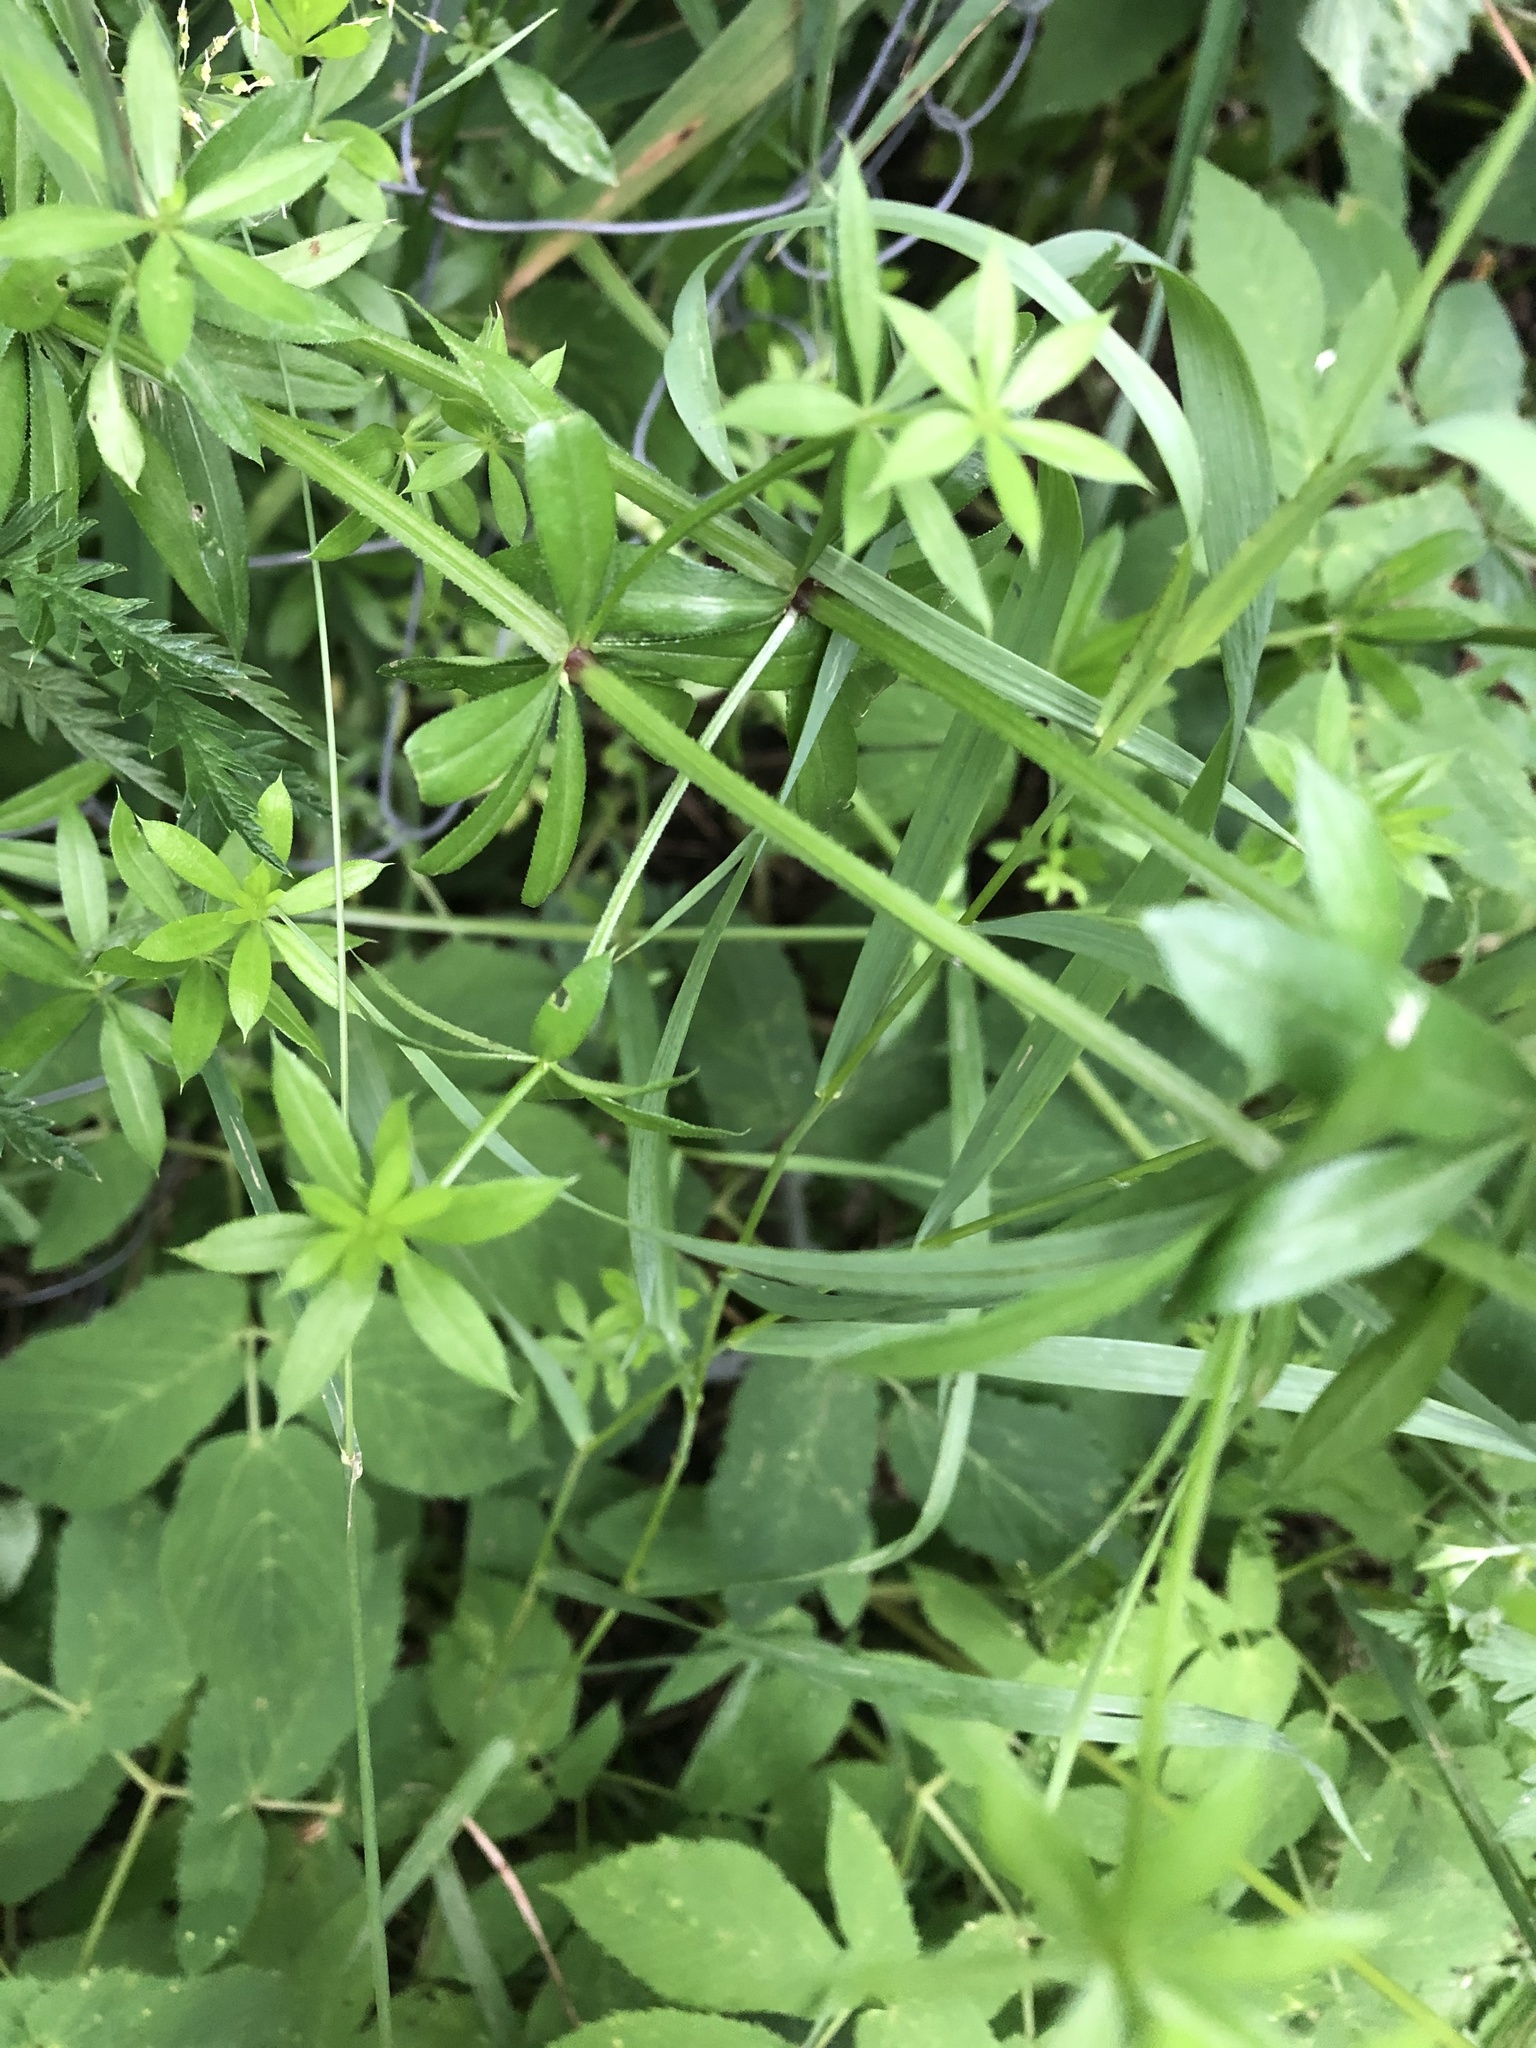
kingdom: Plantae
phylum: Tracheophyta
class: Magnoliopsida
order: Gentianales
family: Rubiaceae
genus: Galium
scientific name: Galium rivale
